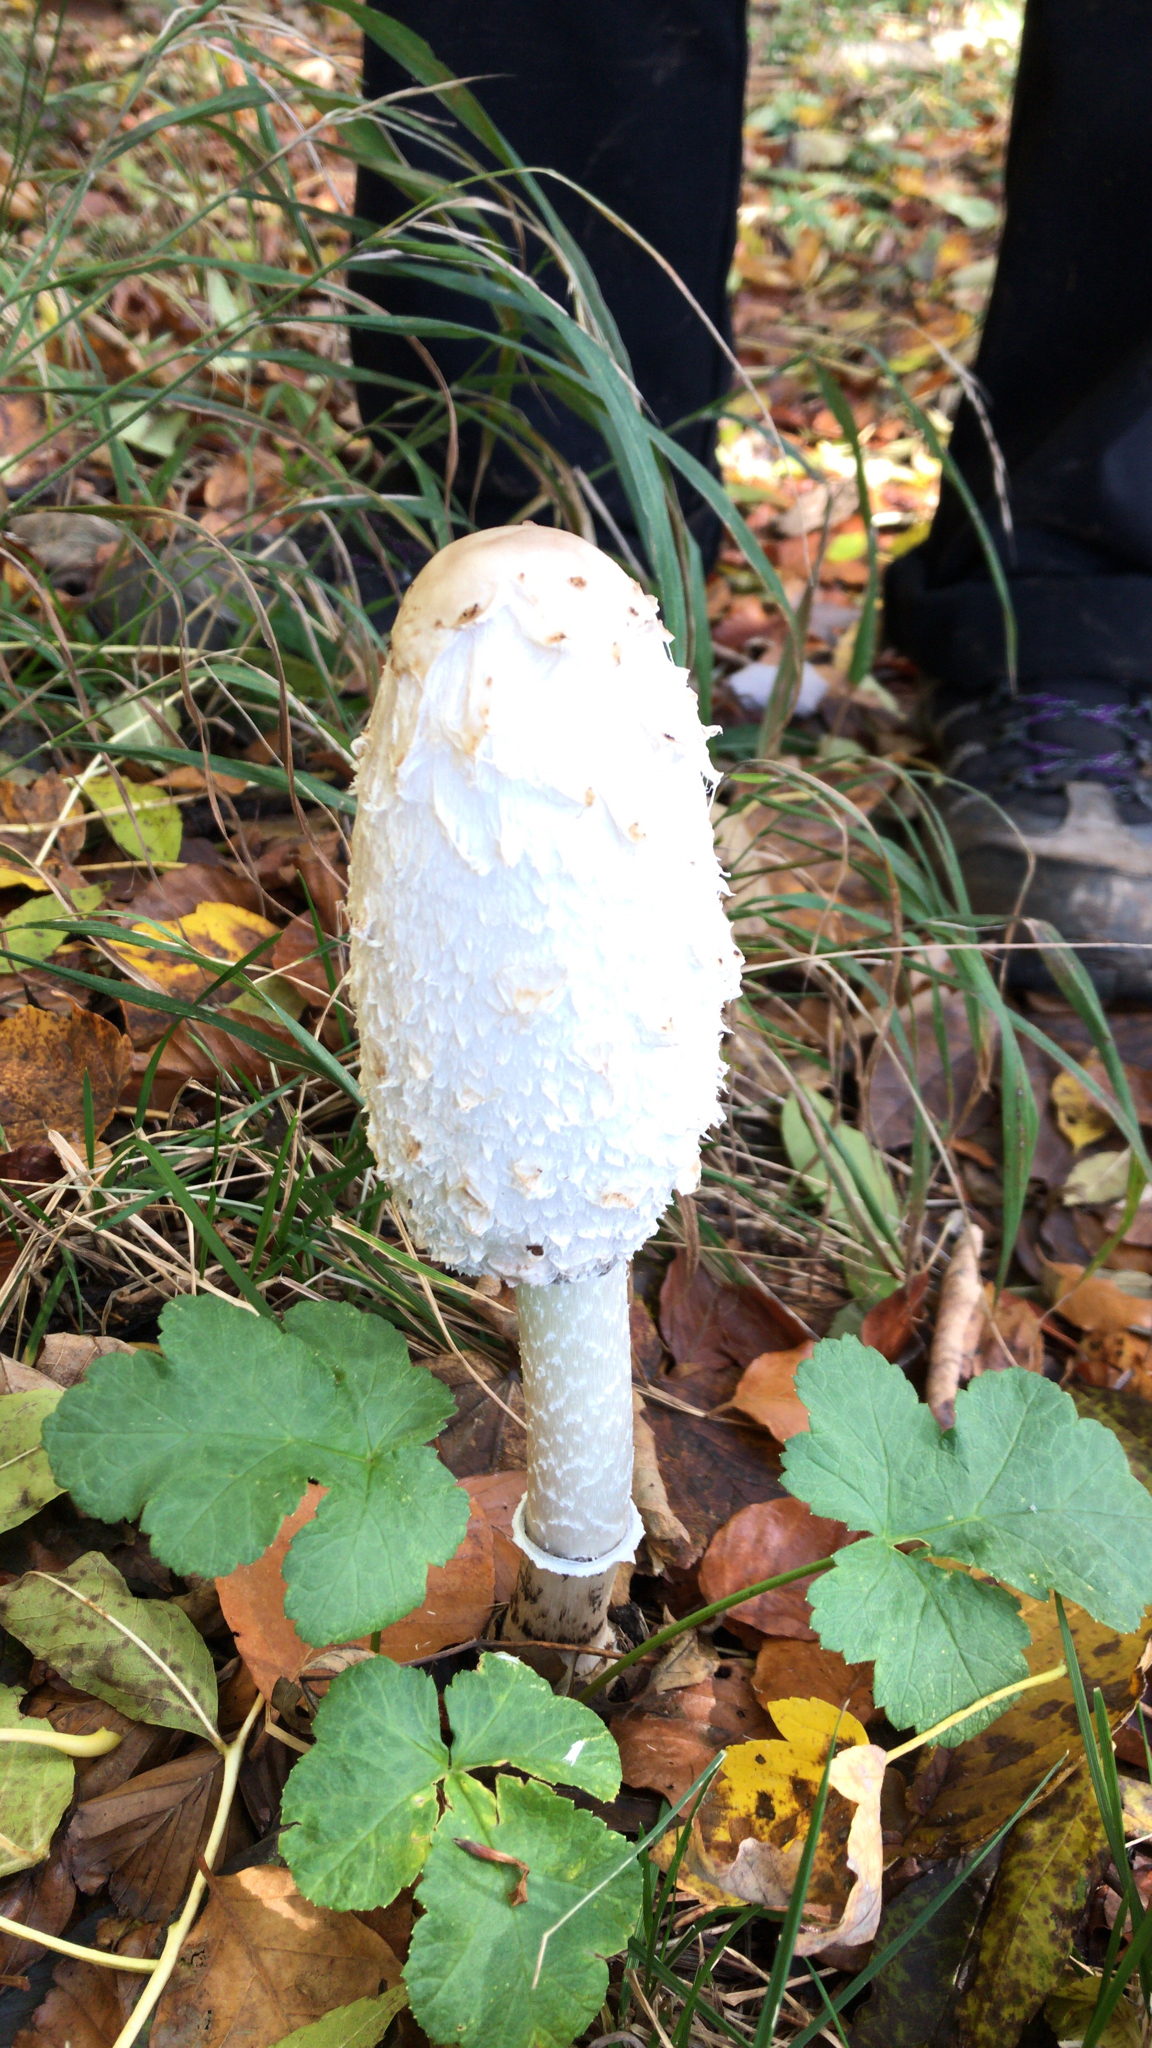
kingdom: Fungi
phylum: Basidiomycota
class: Agaricomycetes
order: Agaricales
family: Agaricaceae
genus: Coprinus
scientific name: Coprinus comatus
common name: Lawyer's wig
